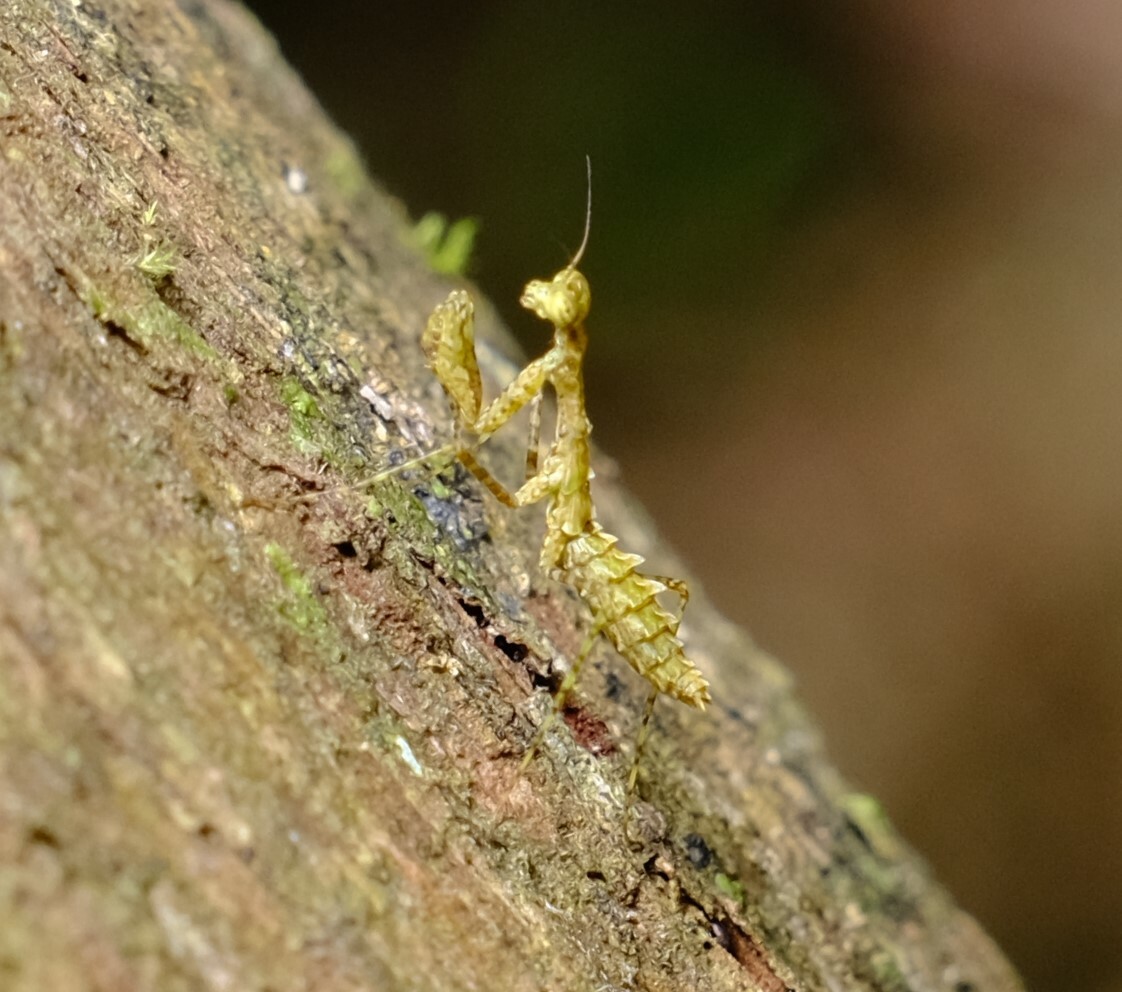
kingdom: Animalia
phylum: Arthropoda
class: Insecta
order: Mantodea
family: Nanomantidae
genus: Calofulcinia
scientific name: Calofulcinia australis
